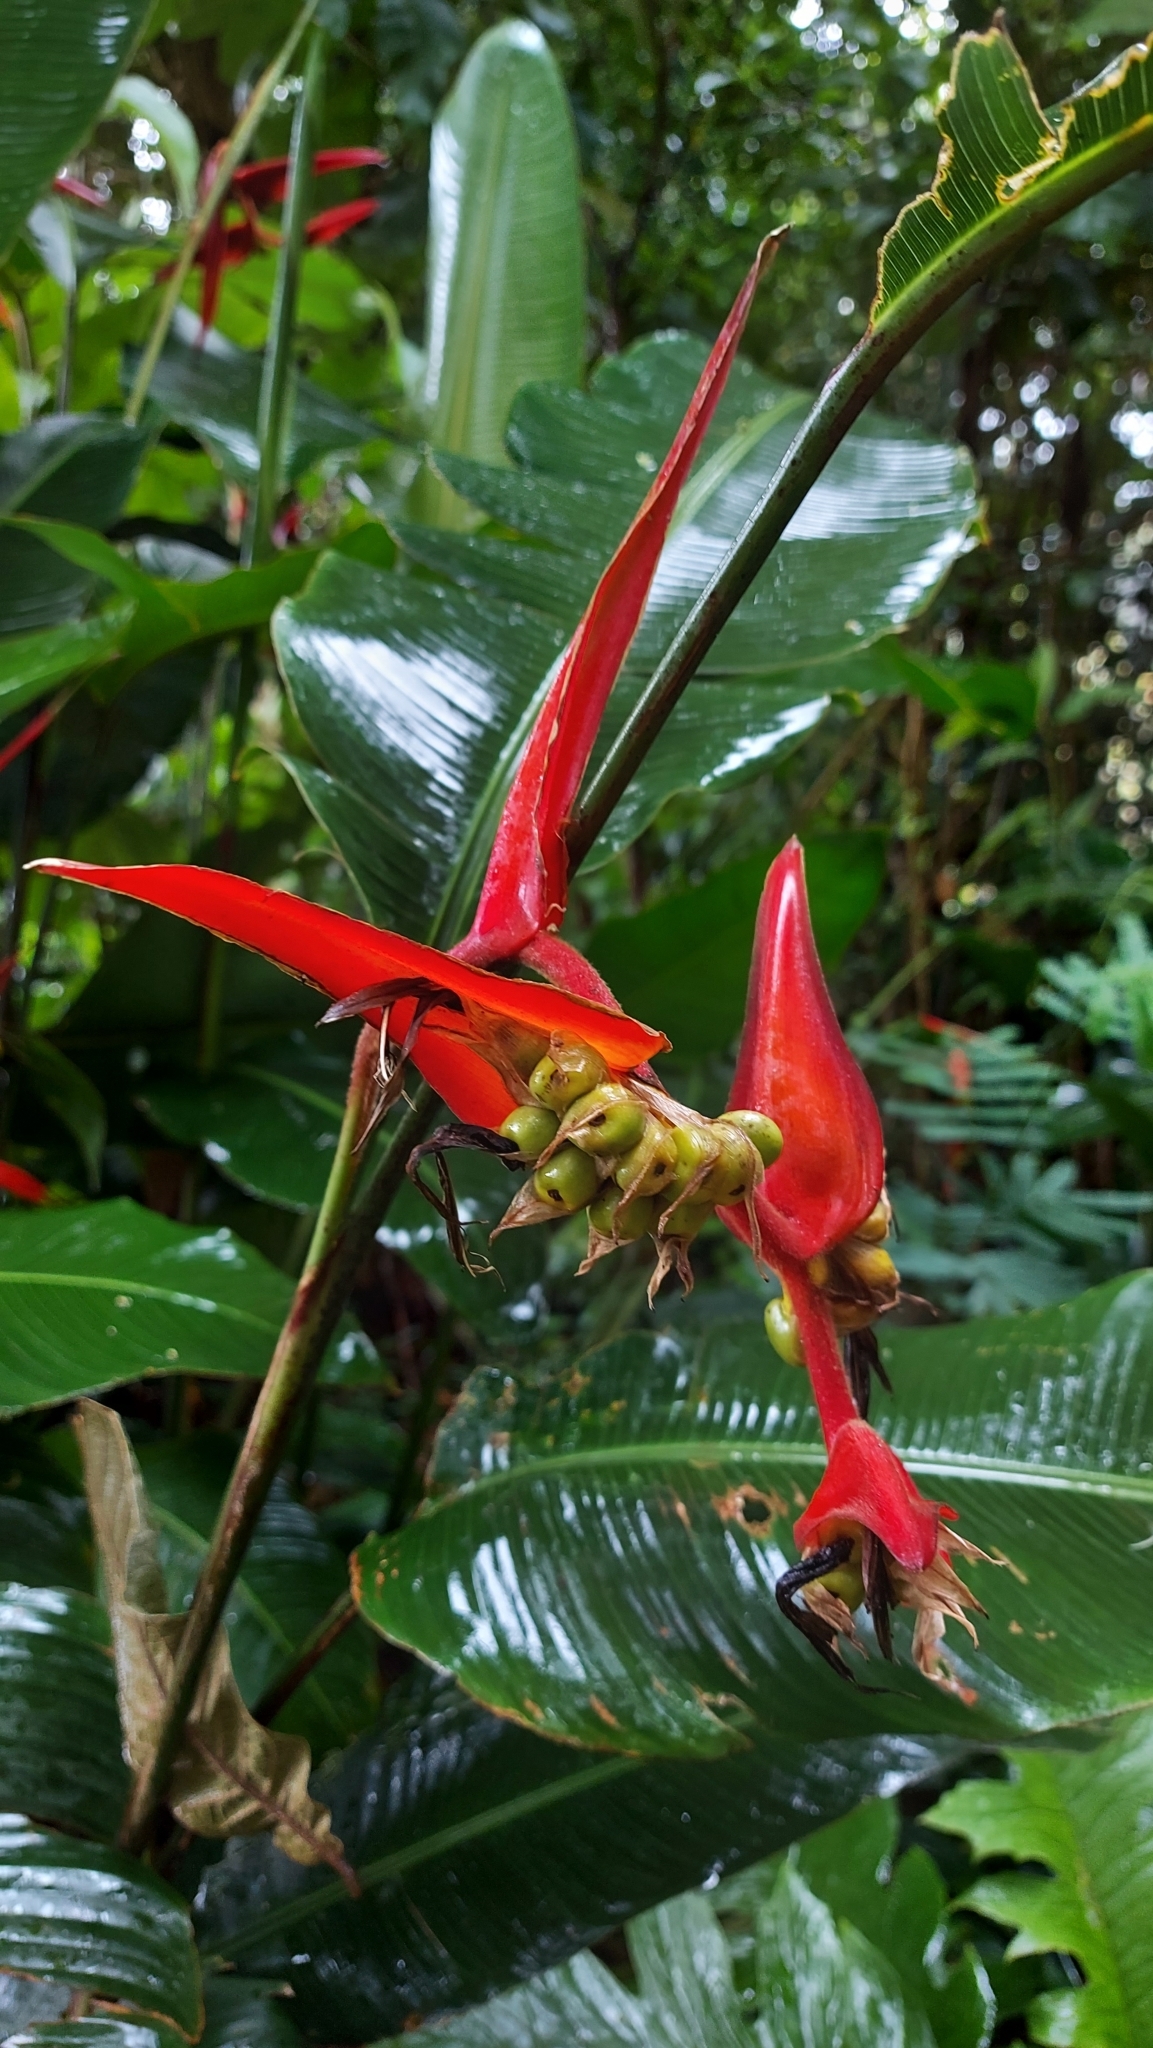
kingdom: Plantae
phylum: Tracheophyta
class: Liliopsida
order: Zingiberales
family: Heliconiaceae
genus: Heliconia
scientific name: Heliconia nutans
